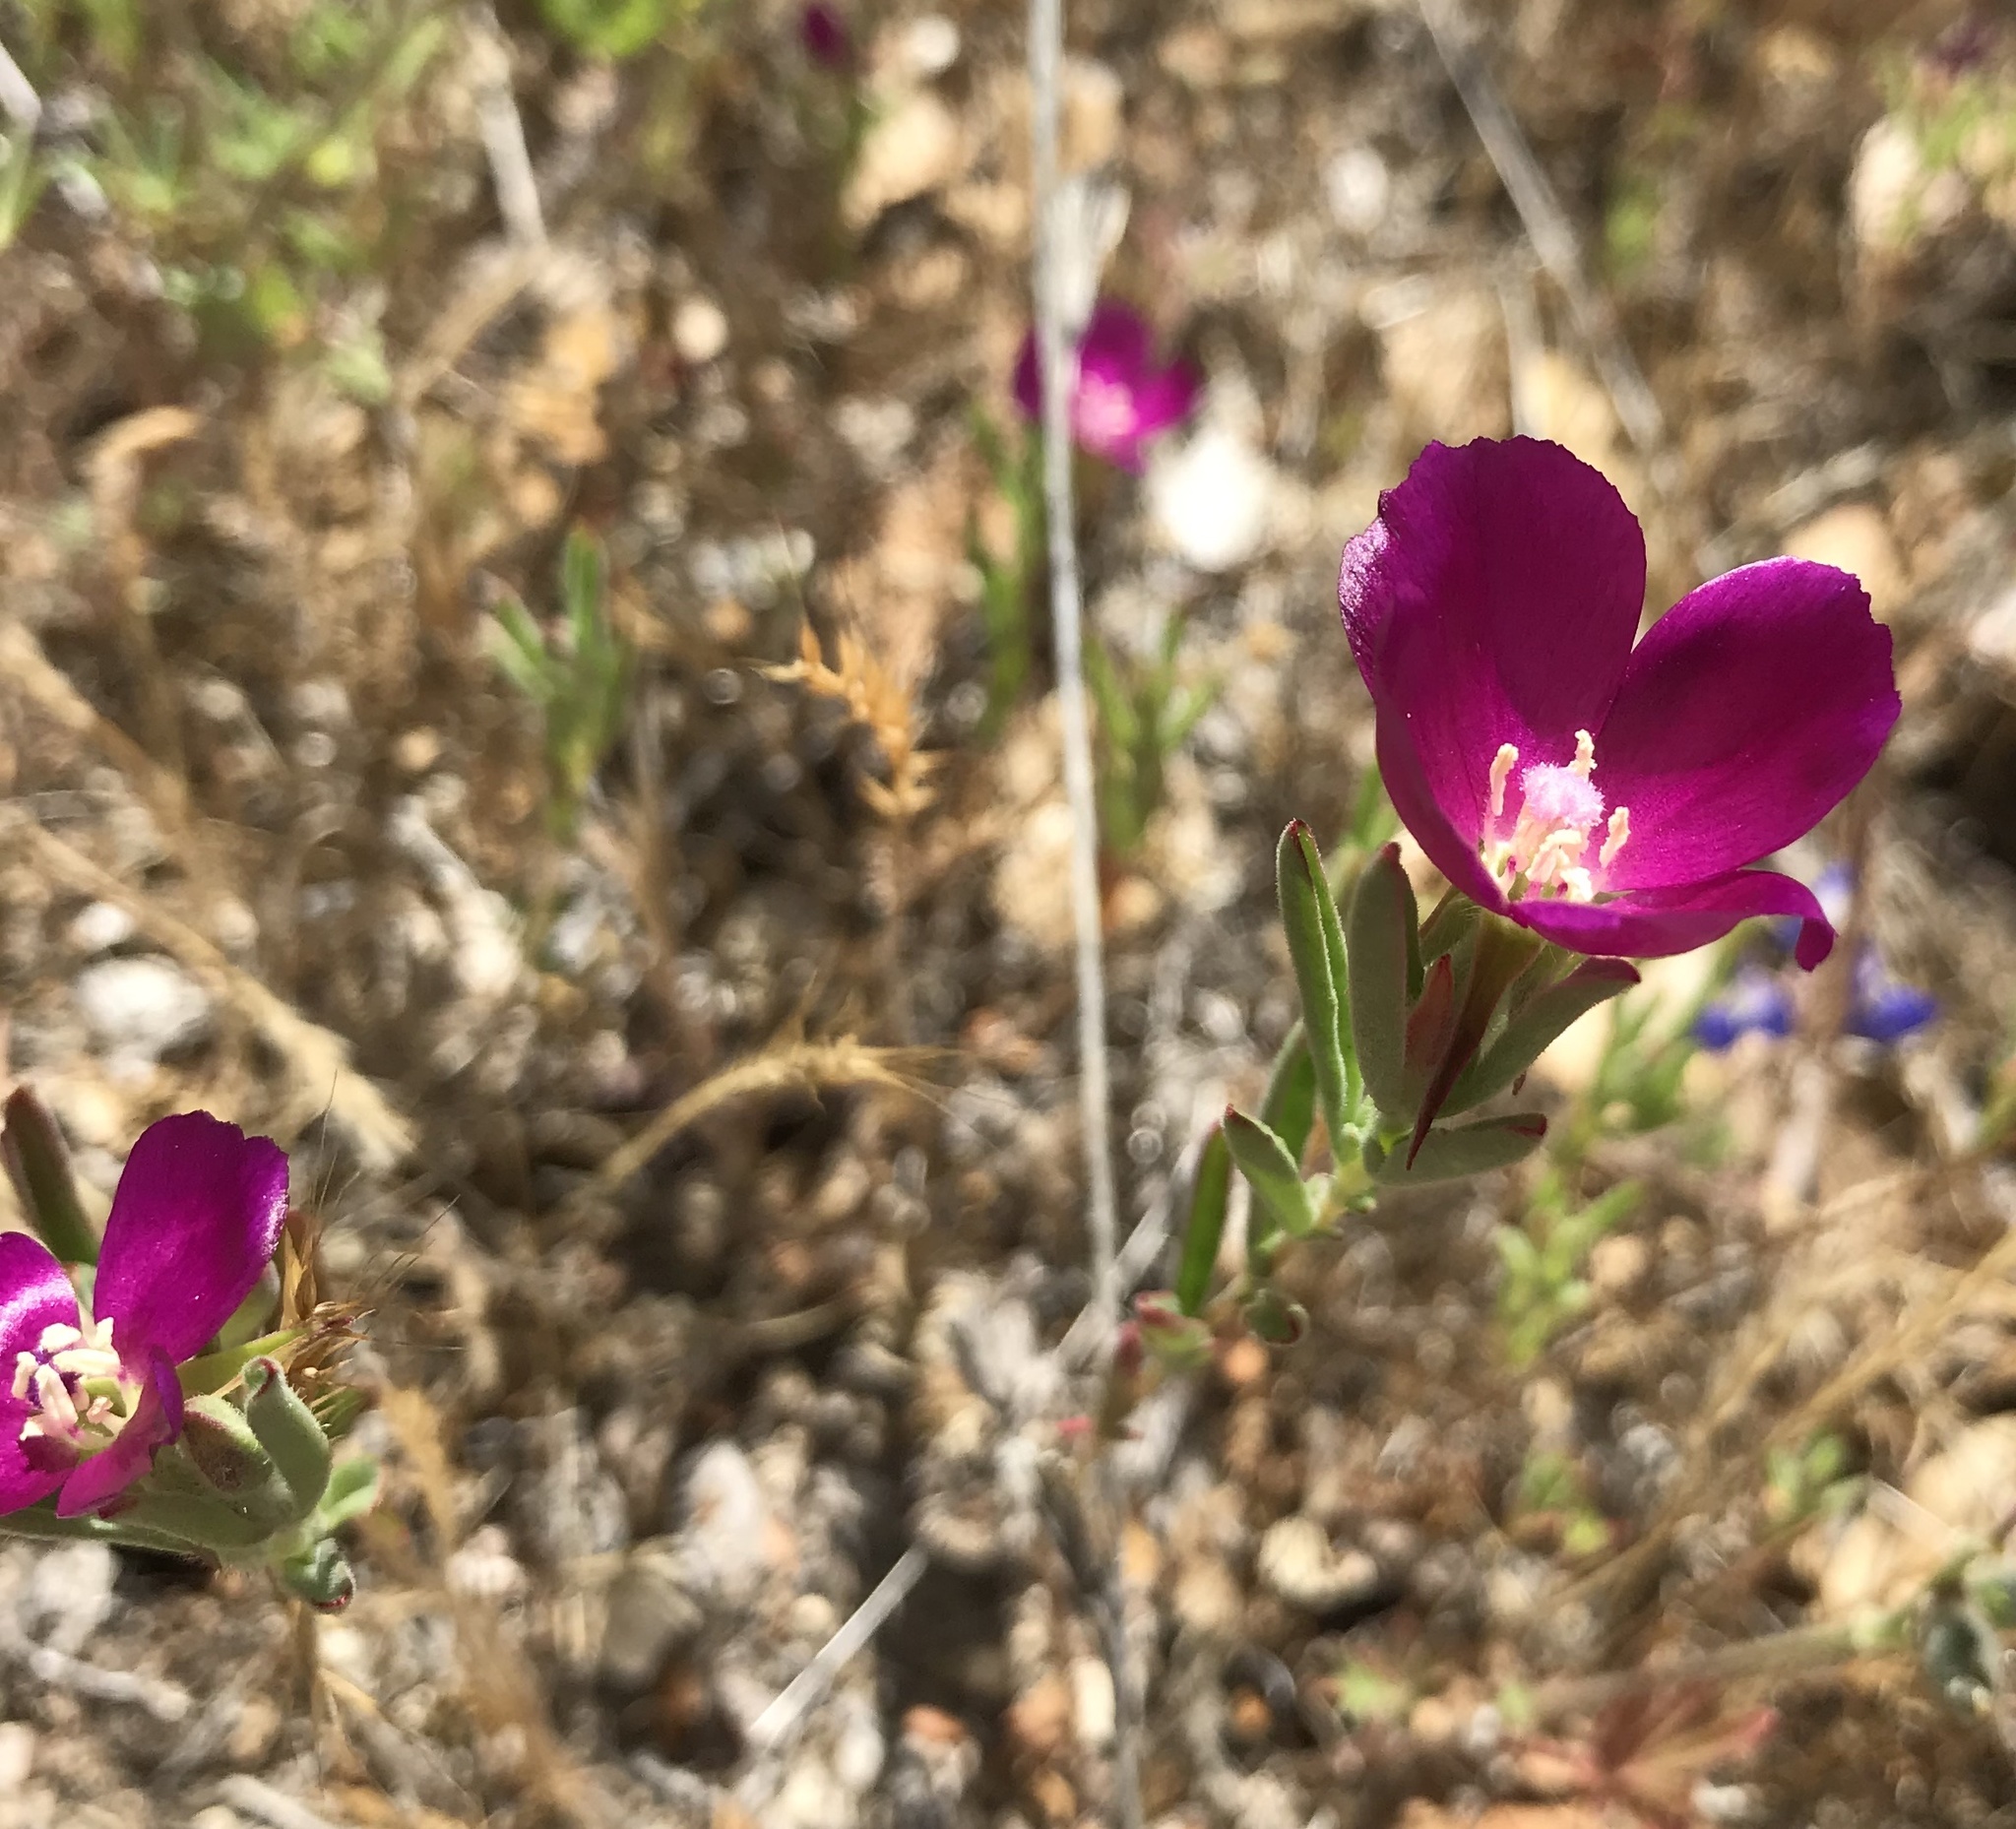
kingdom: Plantae
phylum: Tracheophyta
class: Magnoliopsida
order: Myrtales
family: Onagraceae
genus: Clarkia
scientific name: Clarkia purpurea
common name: Purple clarkia
